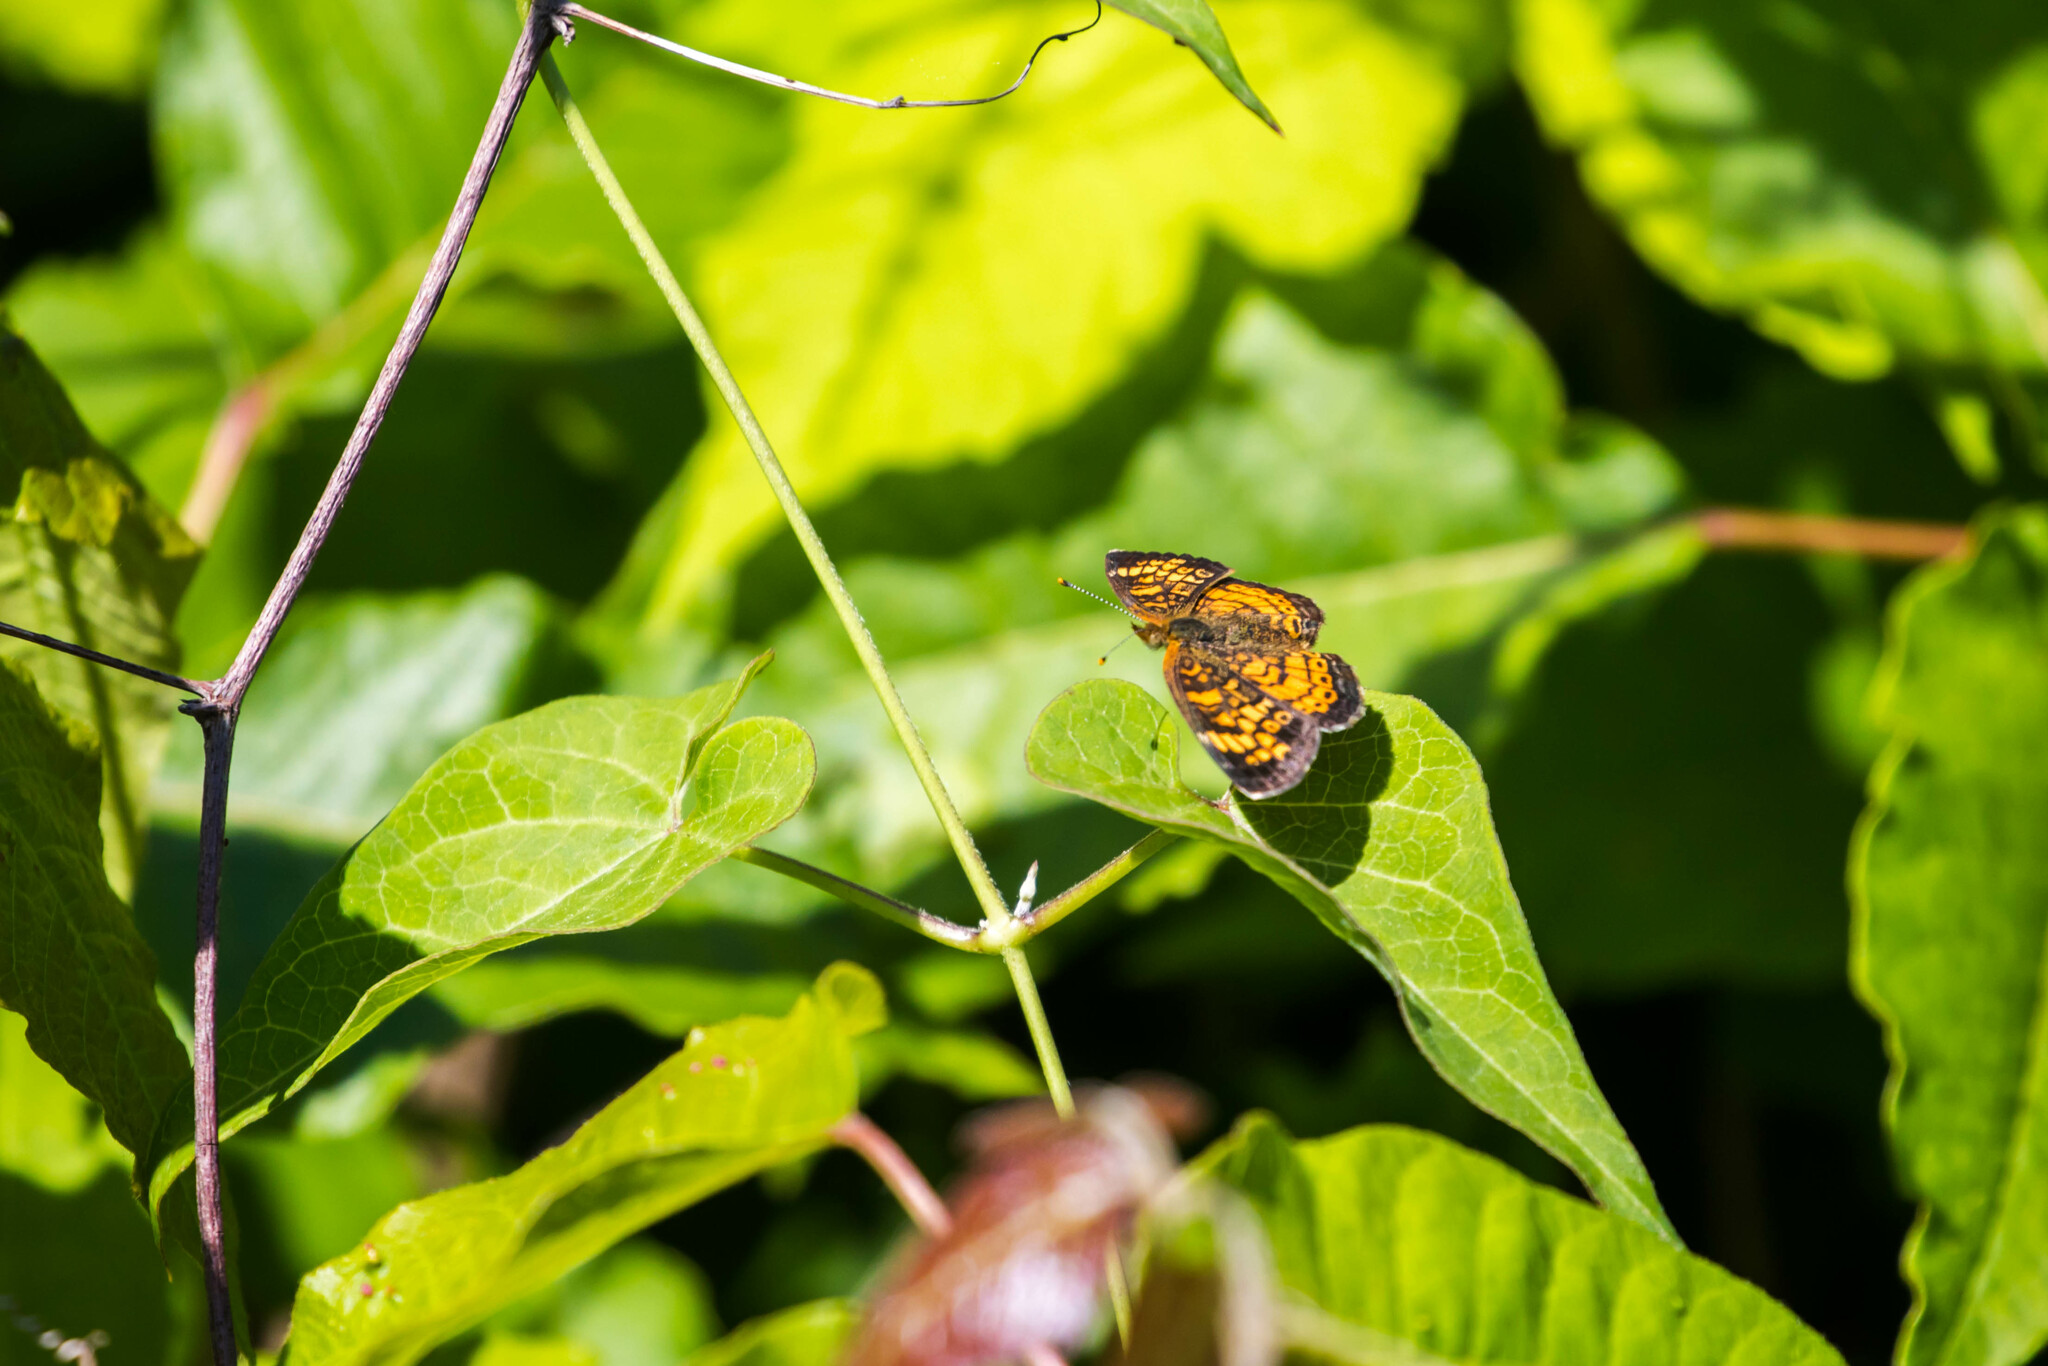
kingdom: Animalia
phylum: Arthropoda
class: Insecta
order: Lepidoptera
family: Nymphalidae
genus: Phyciodes
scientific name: Phyciodes tharos
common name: Pearl crescent
